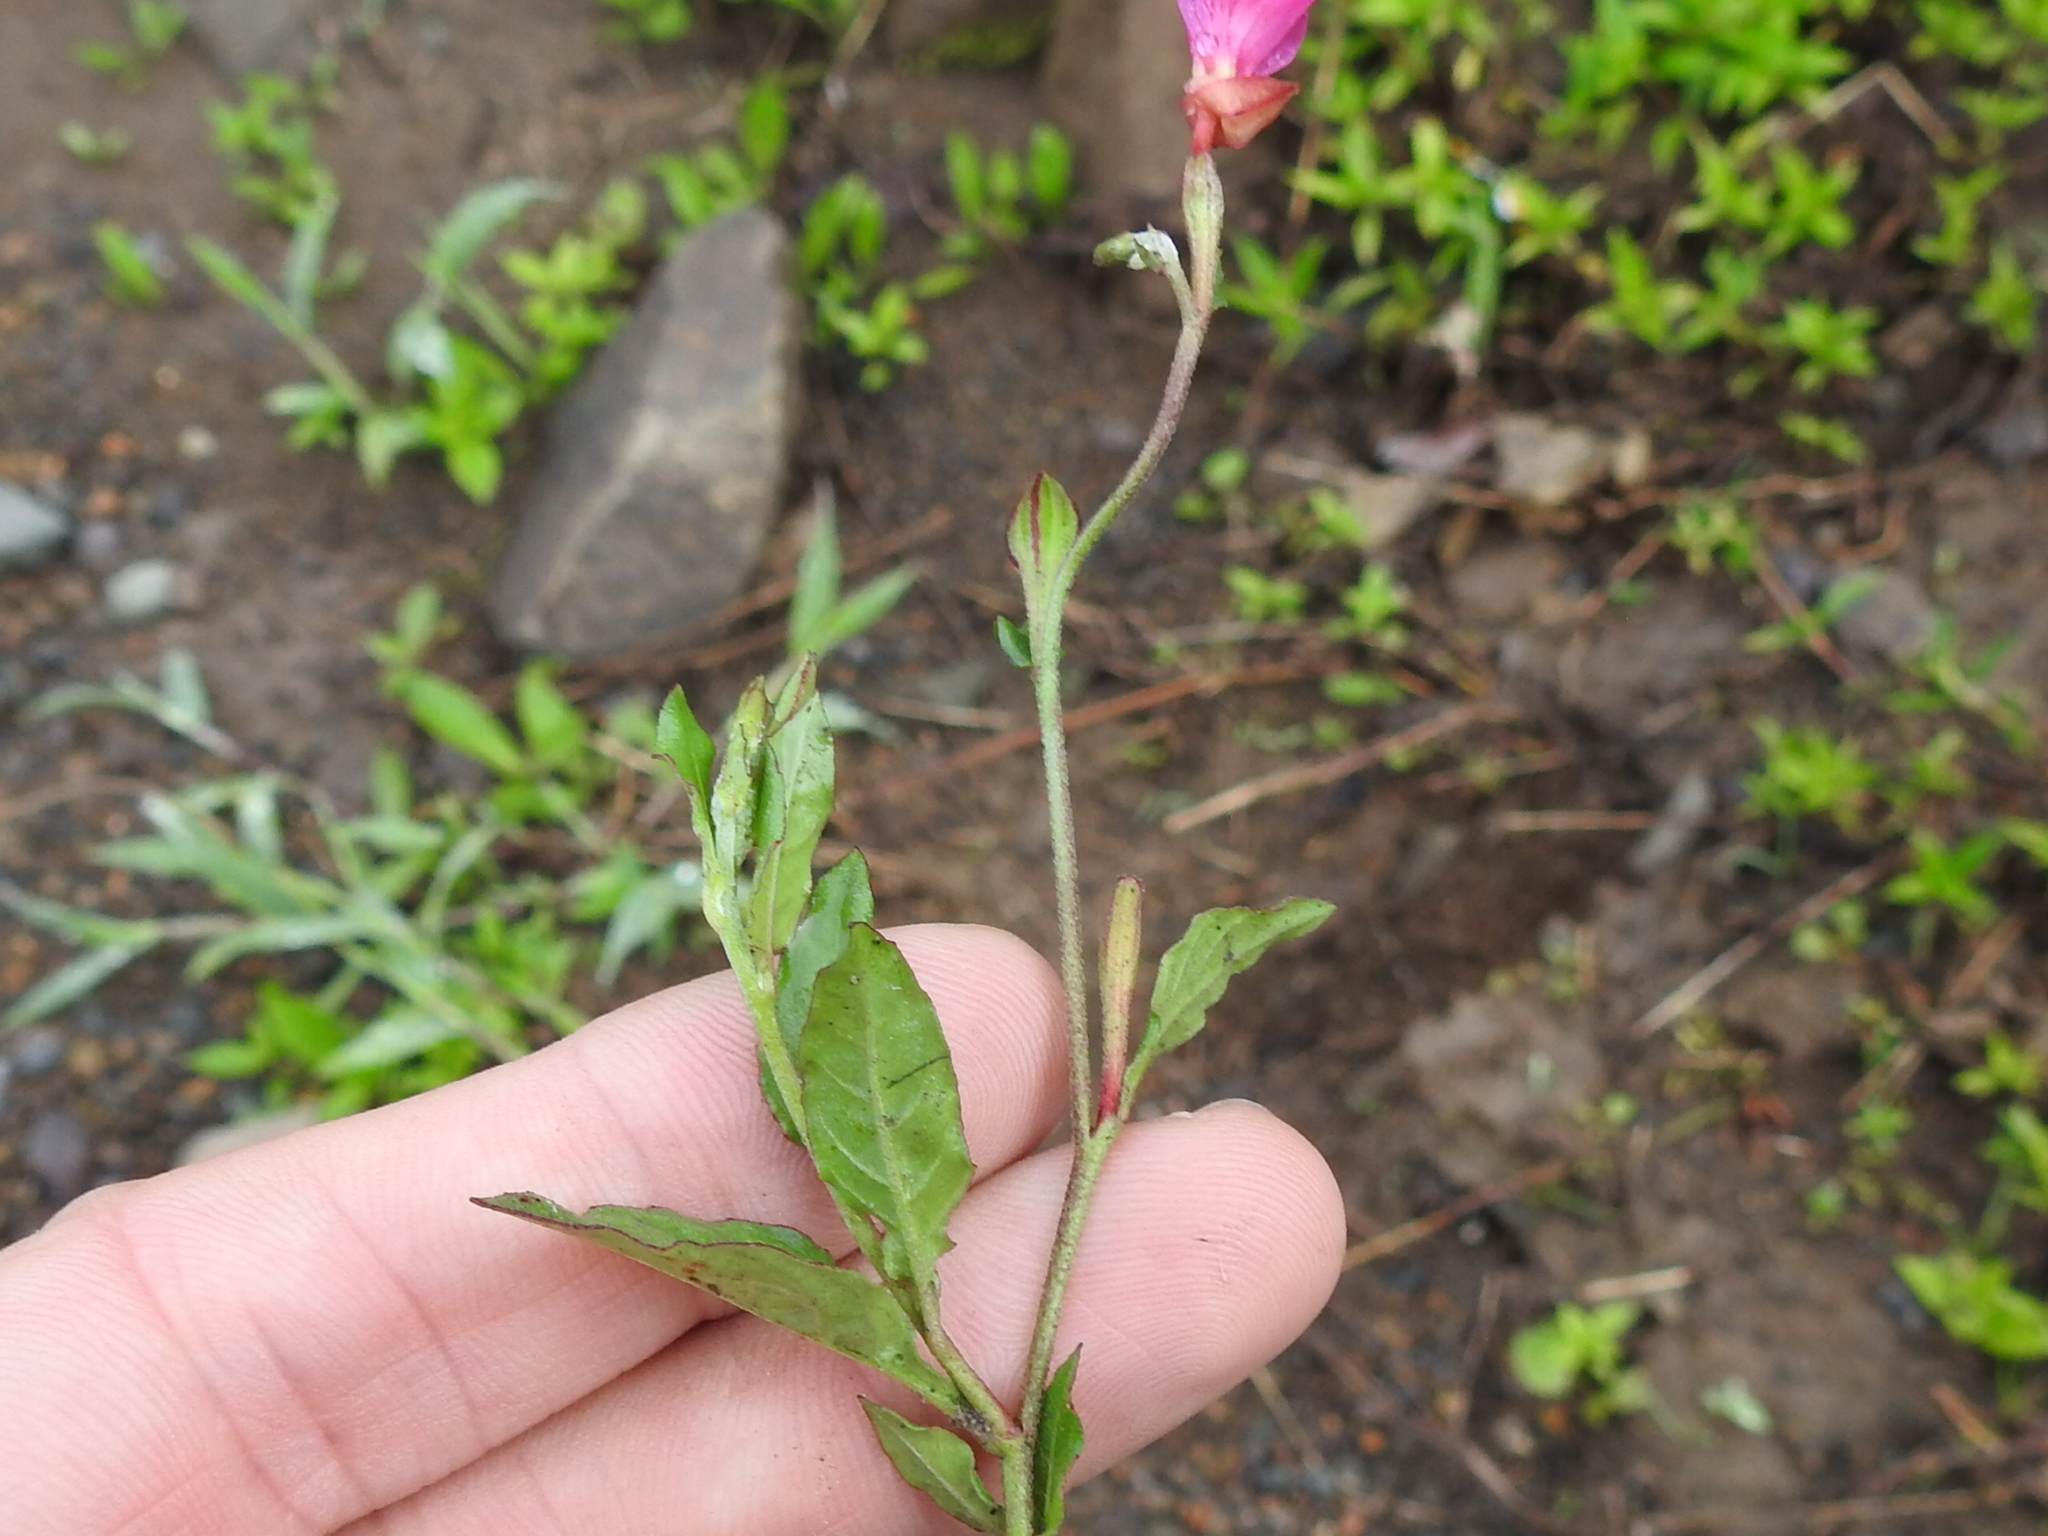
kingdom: Plantae
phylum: Tracheophyta
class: Magnoliopsida
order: Myrtales
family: Onagraceae
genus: Oenothera
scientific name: Oenothera rosea
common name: Rosy evening-primrose
